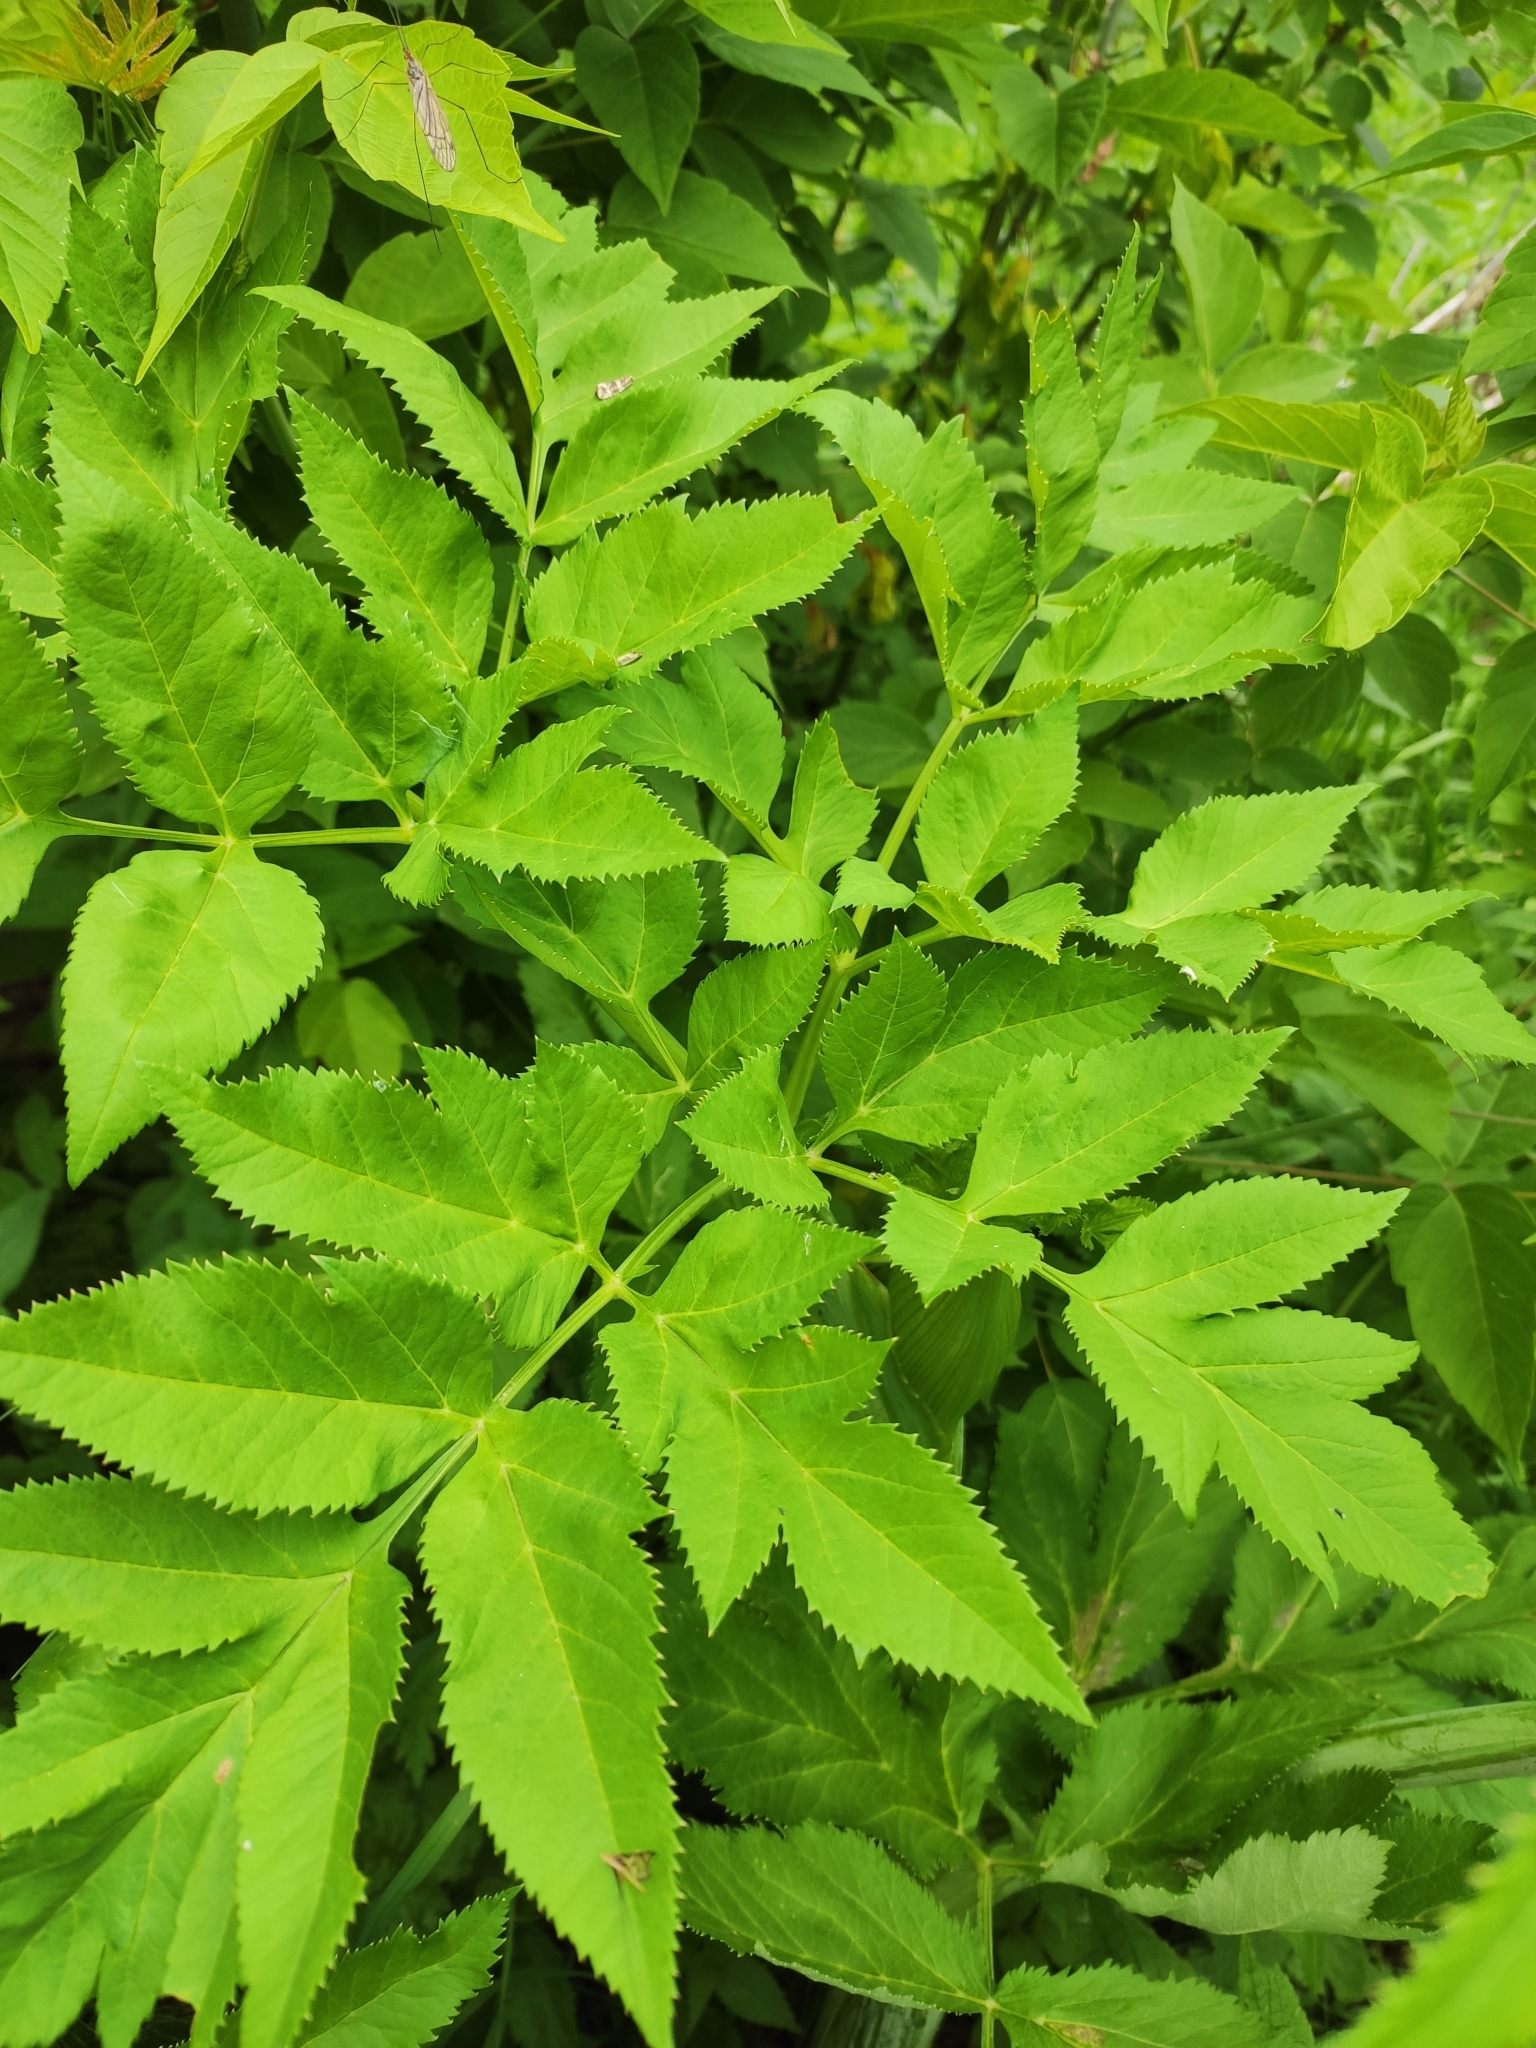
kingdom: Plantae
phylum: Tracheophyta
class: Magnoliopsida
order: Apiales
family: Apiaceae
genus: Angelica
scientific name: Angelica decurrens
